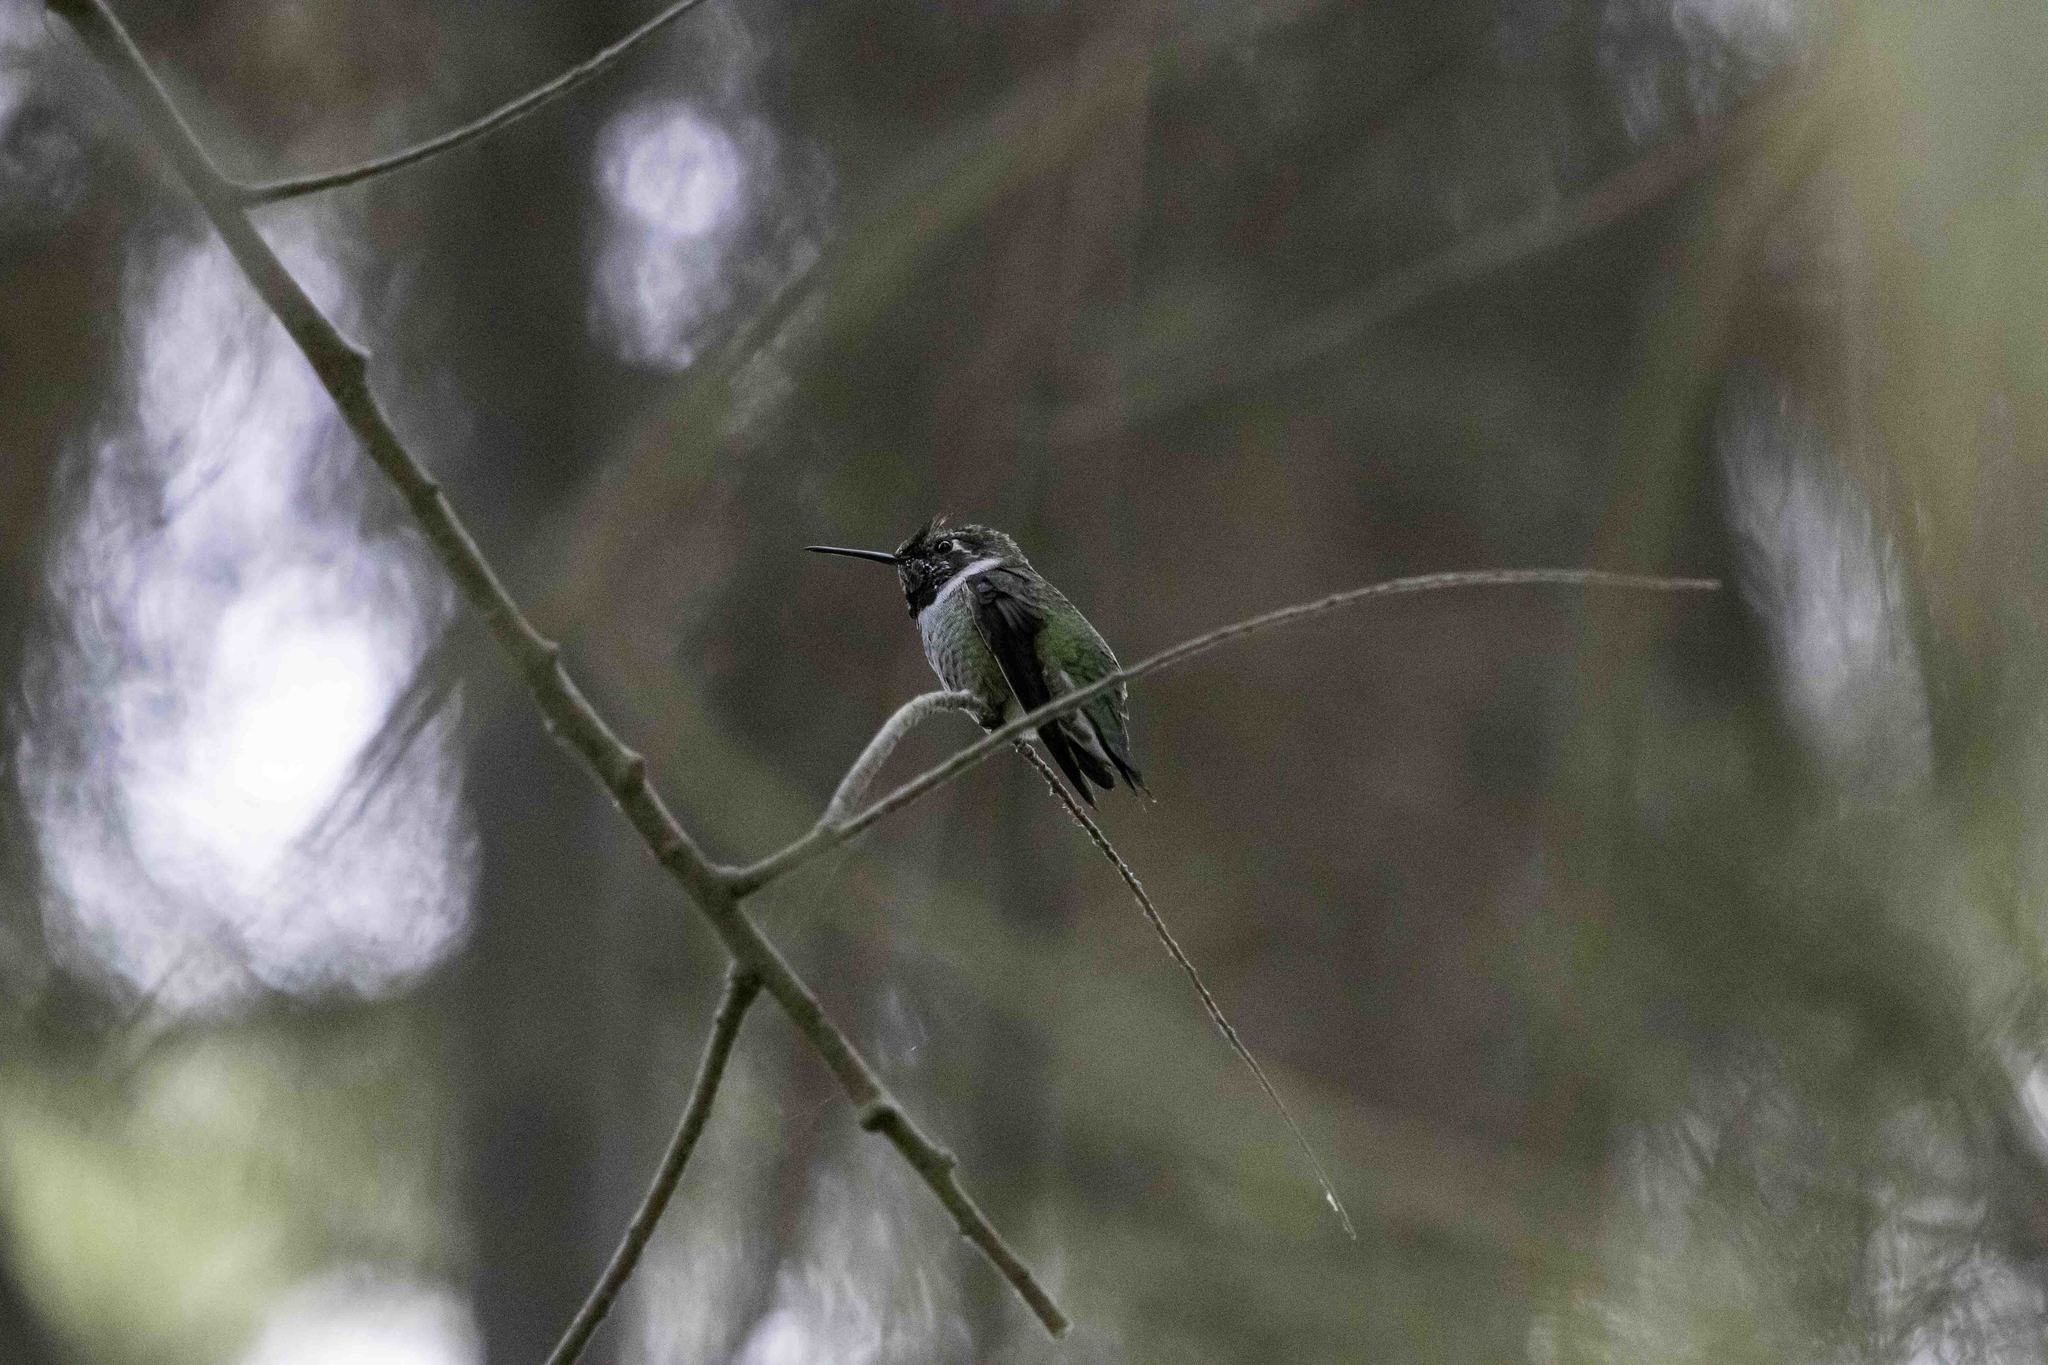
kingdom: Animalia
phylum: Chordata
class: Aves
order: Apodiformes
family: Trochilidae
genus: Calypte
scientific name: Calypte anna
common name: Anna's hummingbird
